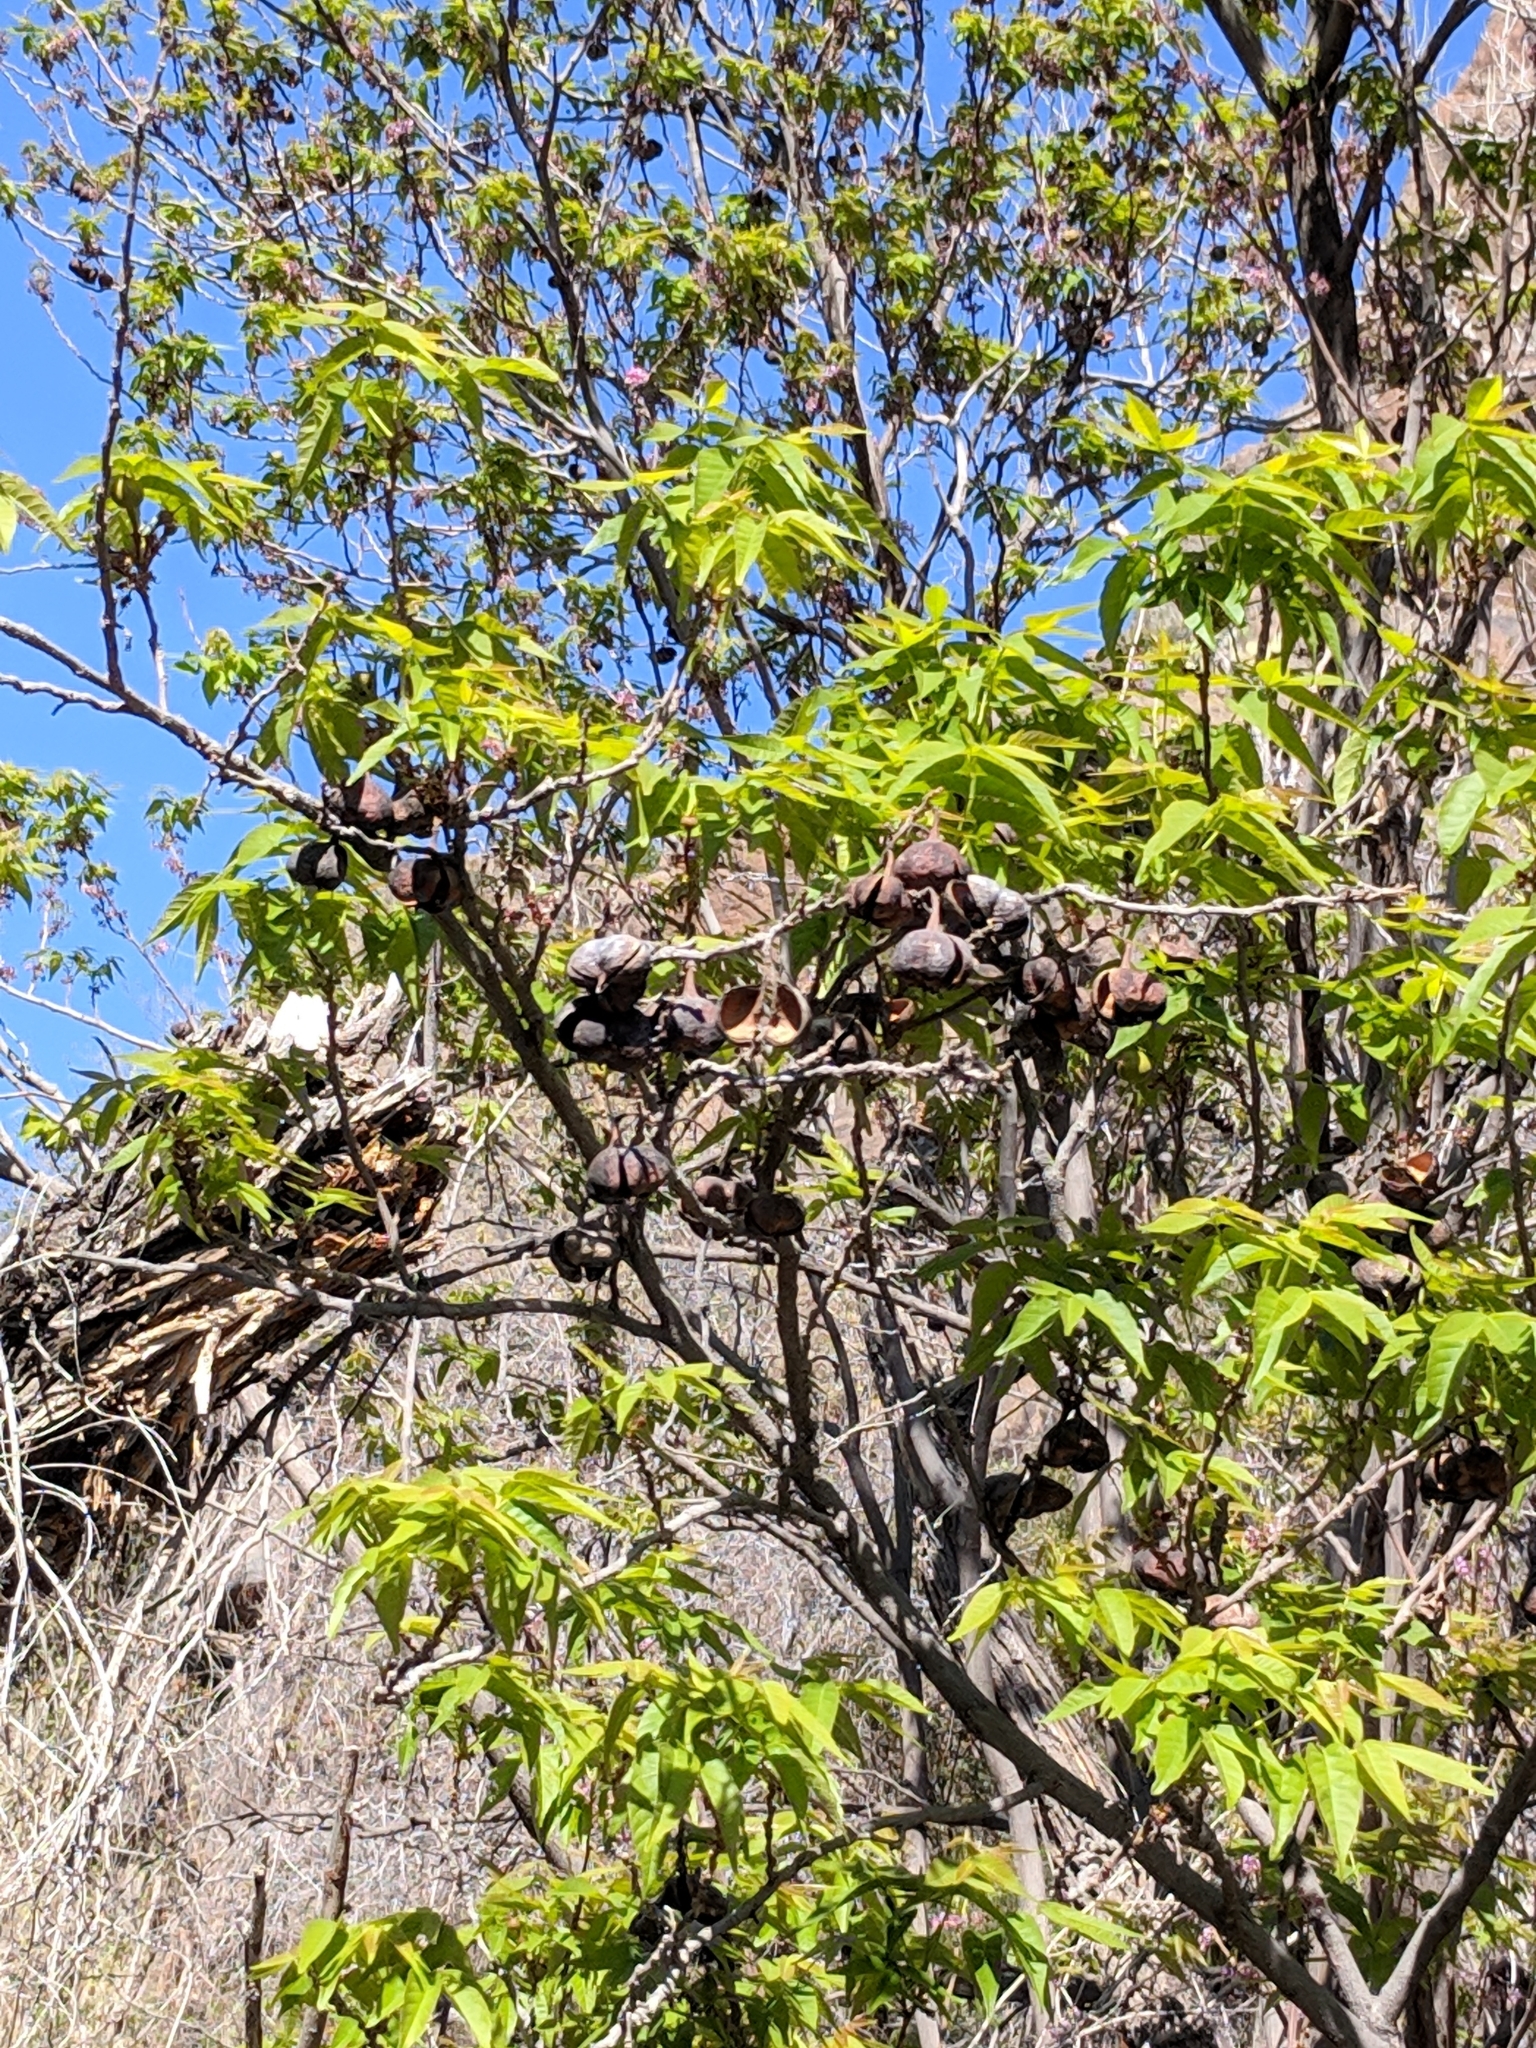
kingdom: Plantae
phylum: Tracheophyta
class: Magnoliopsida
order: Sapindales
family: Sapindaceae
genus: Ungnadia
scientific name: Ungnadia speciosa
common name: Texas-buckeye
